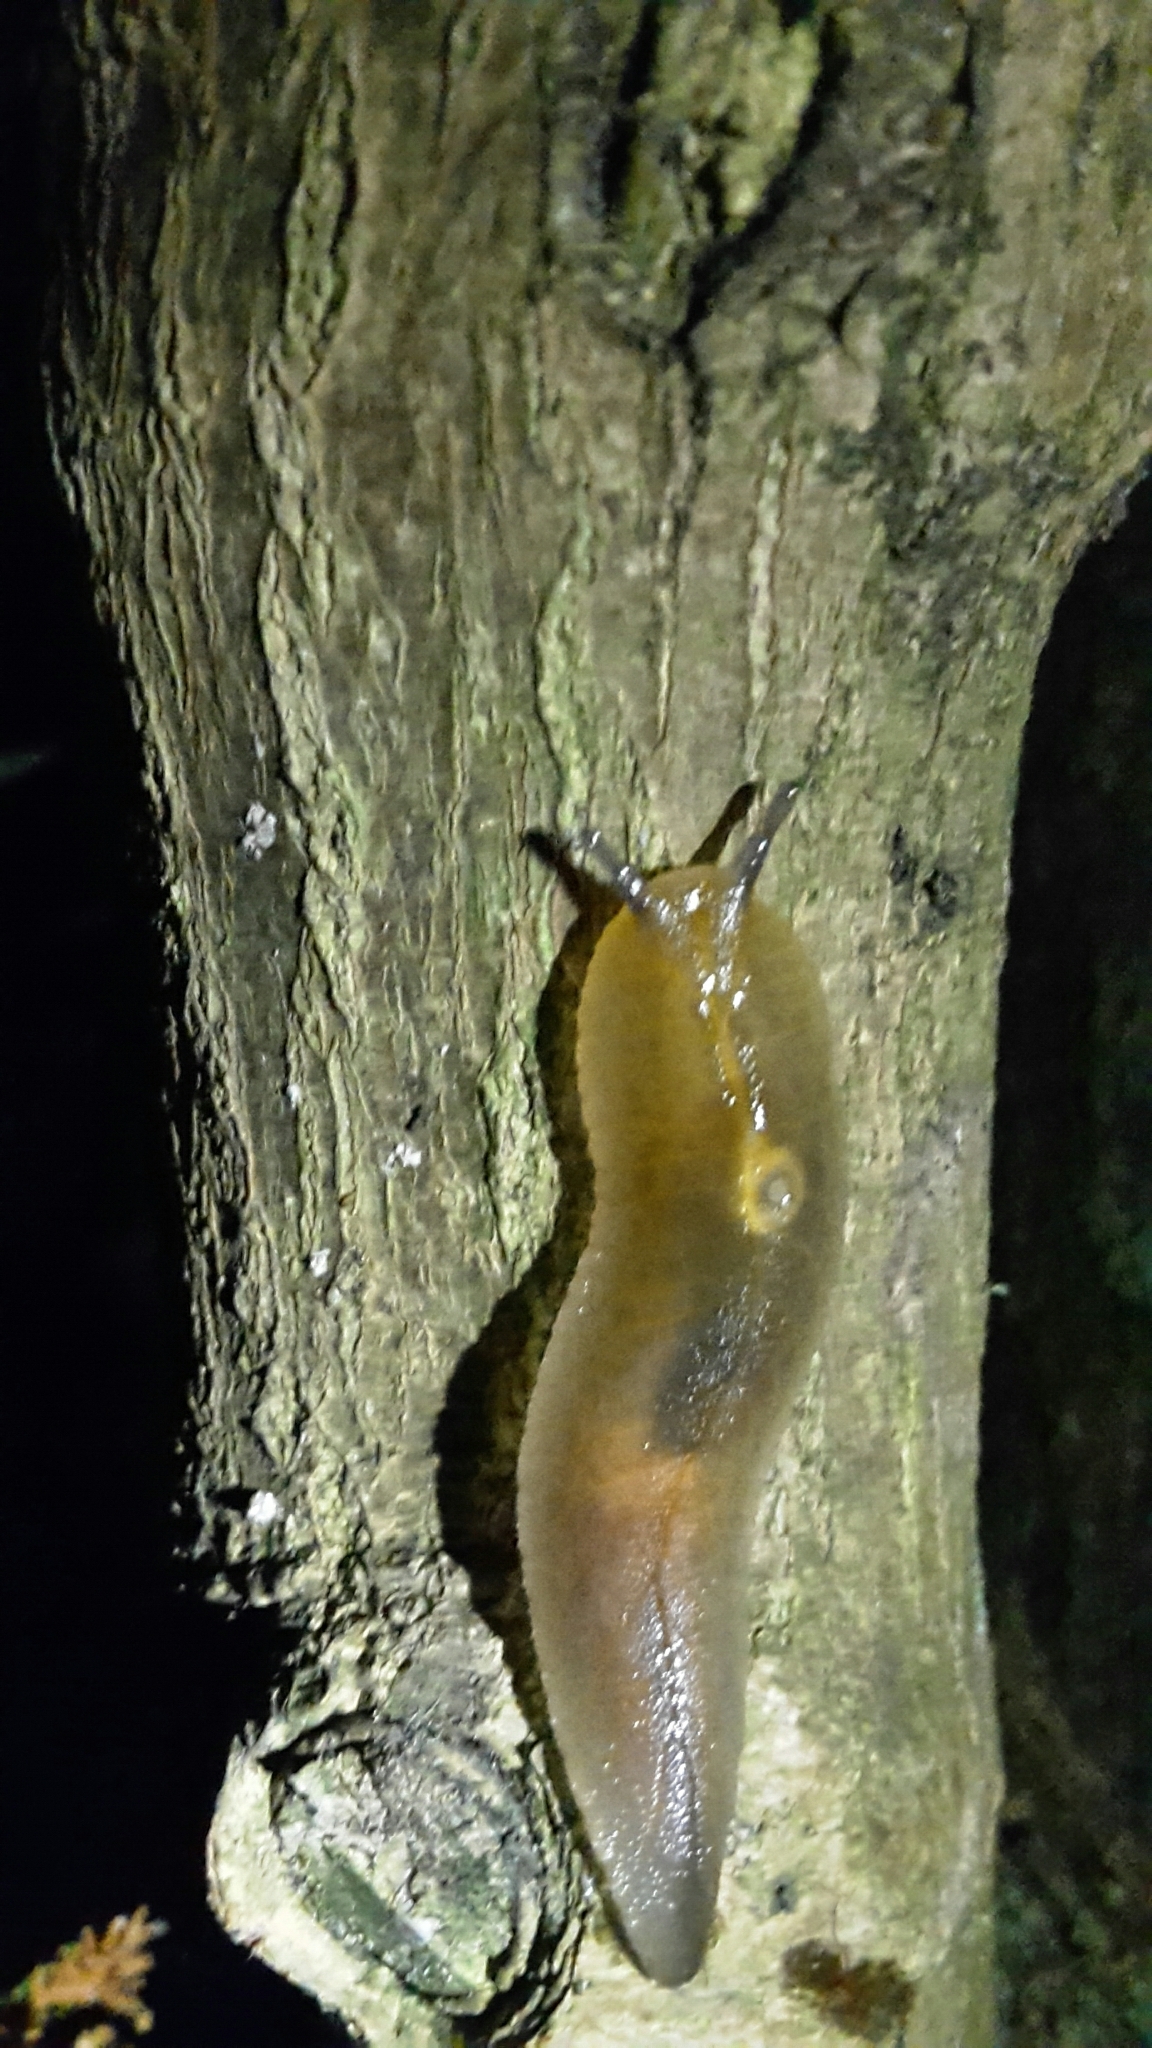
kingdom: Animalia
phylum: Mollusca
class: Gastropoda
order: Stylommatophora
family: Athoracophoridae
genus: Athoracophorus
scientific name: Athoracophorus bitentaculatus
